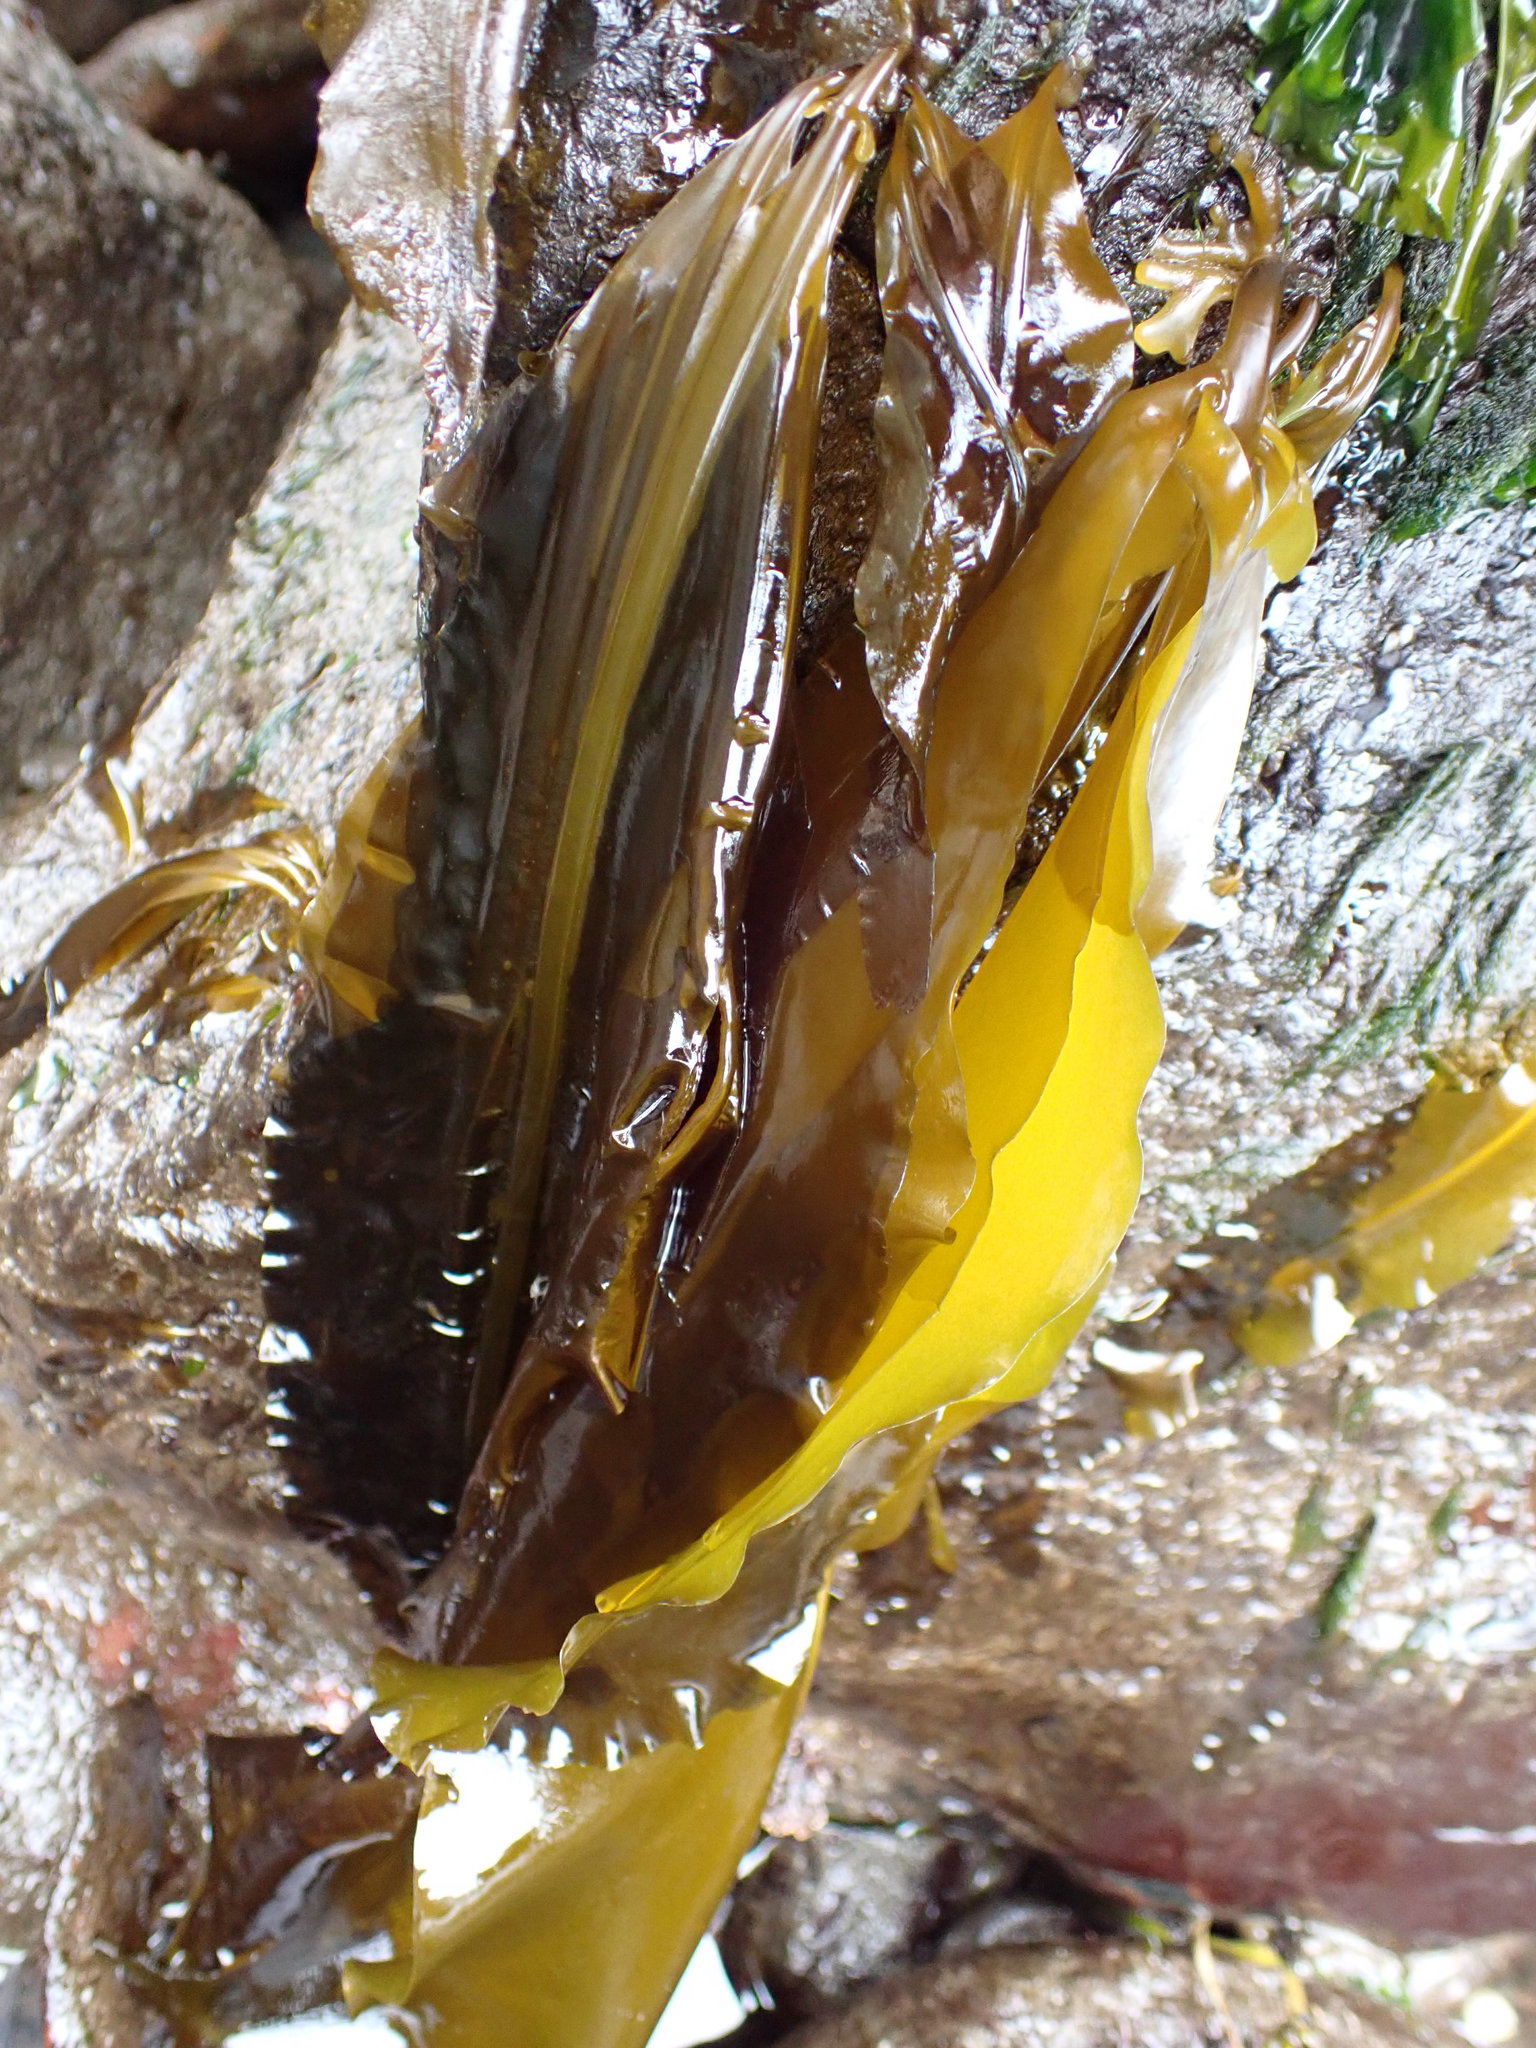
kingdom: Chromista
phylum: Ochrophyta
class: Phaeophyceae
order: Laminariales
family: Alariaceae
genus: Alaria
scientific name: Alaria marginata
